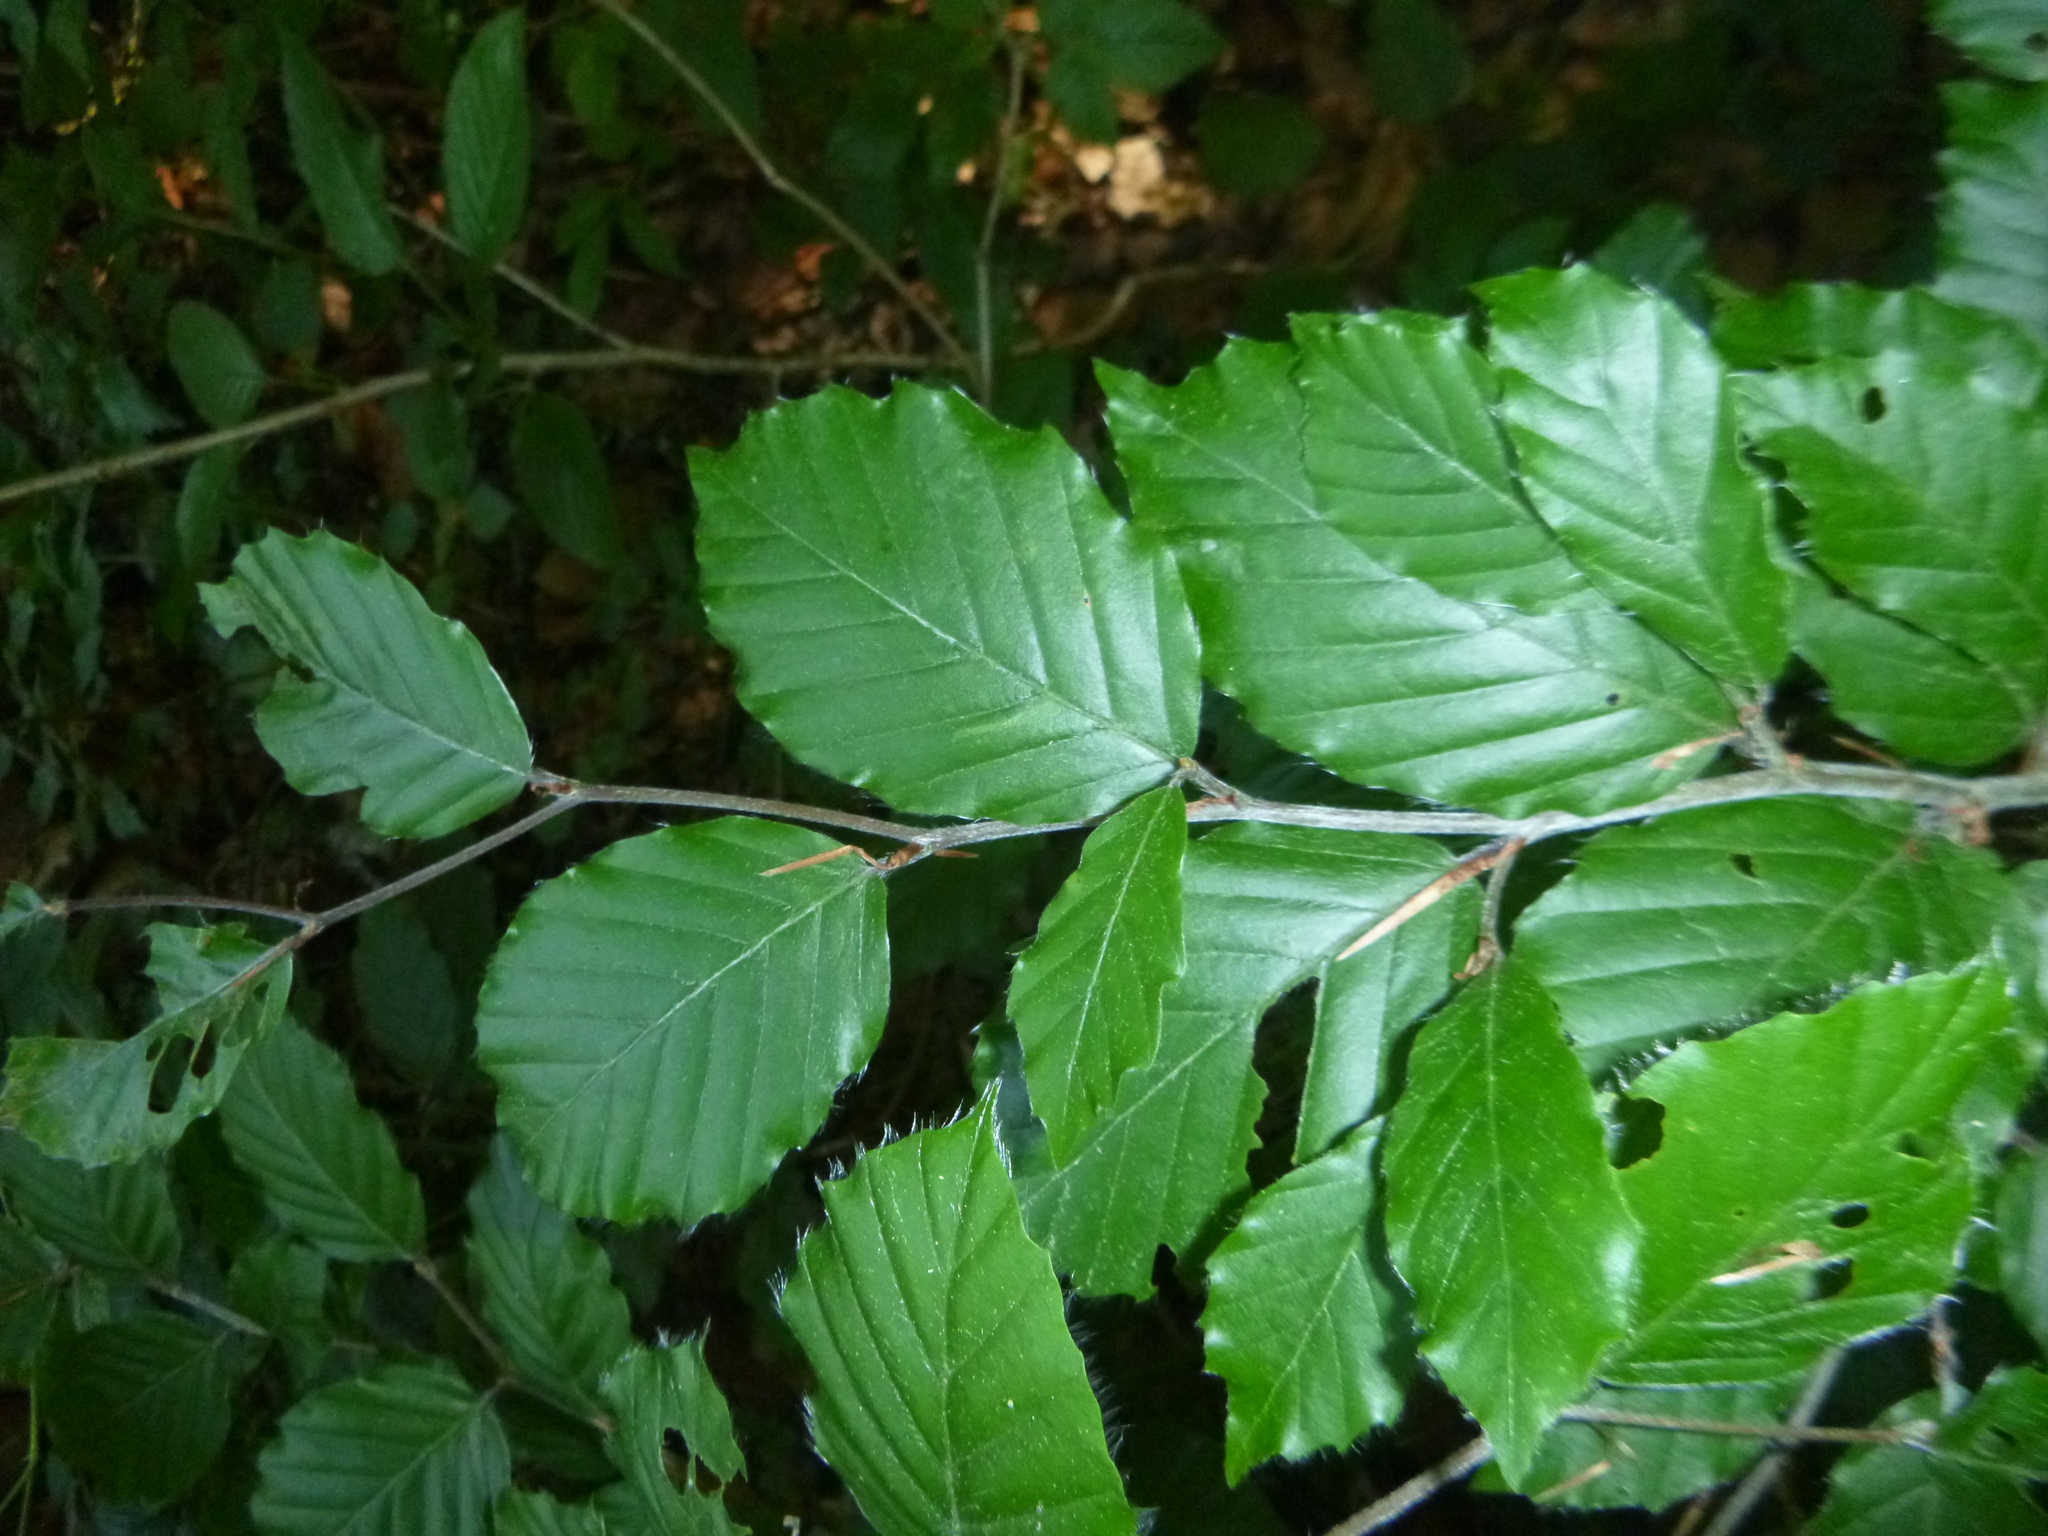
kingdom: Plantae
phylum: Tracheophyta
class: Magnoliopsida
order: Fagales
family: Fagaceae
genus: Fagus
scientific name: Fagus sylvatica
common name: Beech
